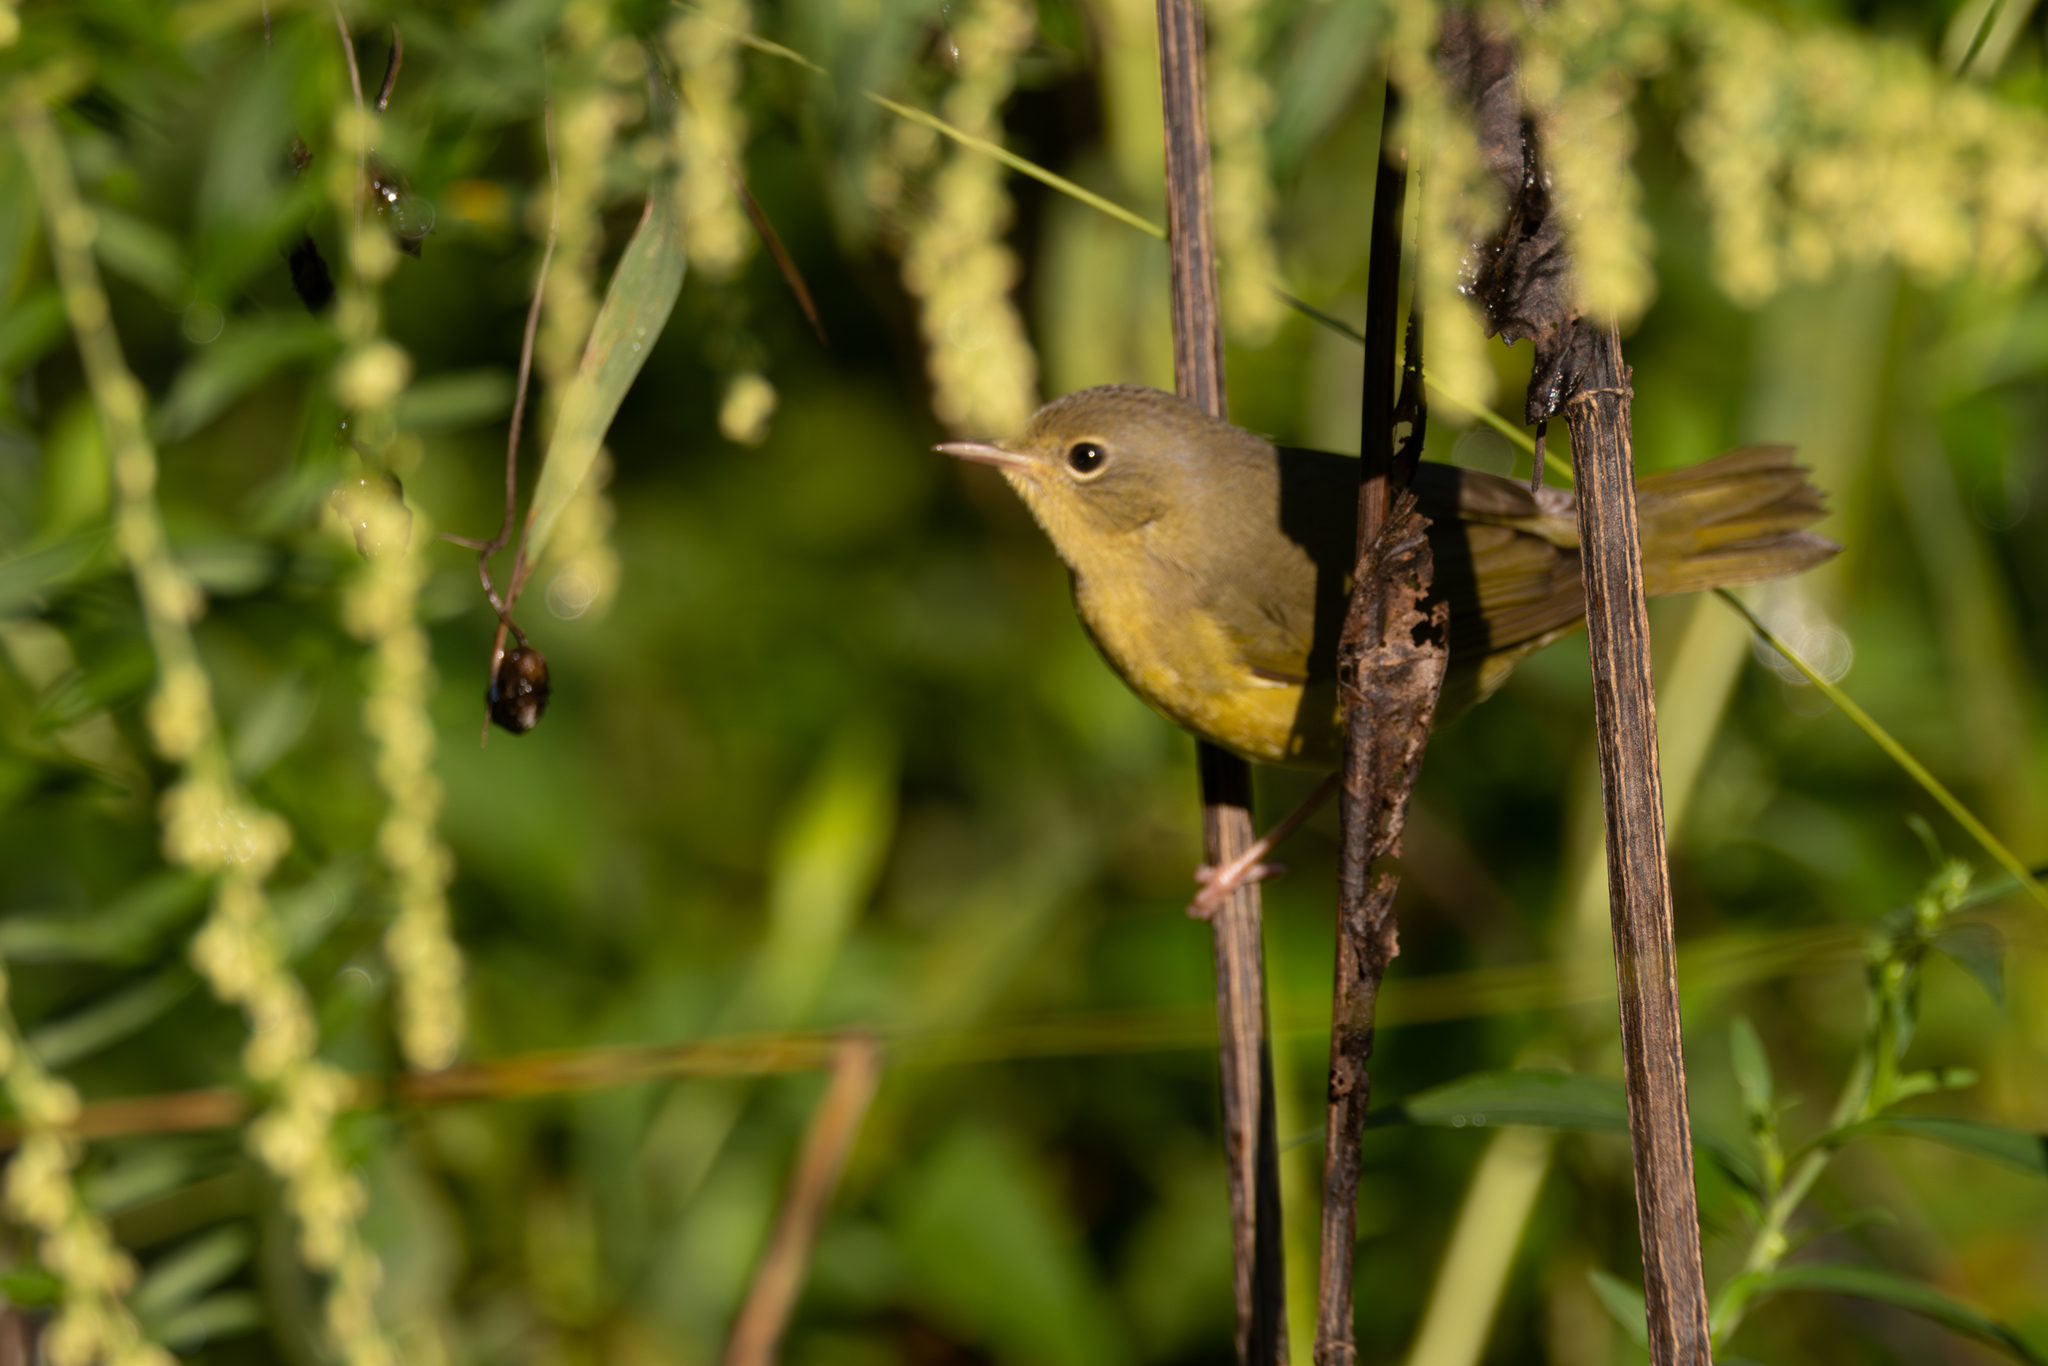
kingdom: Animalia
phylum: Chordata
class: Aves
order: Passeriformes
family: Parulidae
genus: Geothlypis
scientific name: Geothlypis philadelphia
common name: Mourning warbler
